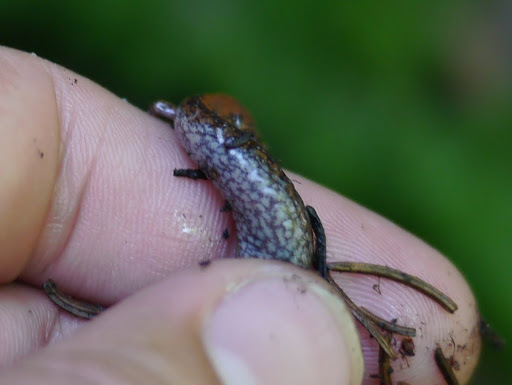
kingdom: Animalia
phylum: Chordata
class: Amphibia
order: Caudata
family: Plethodontidae
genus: Plethodon
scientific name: Plethodon cinereus
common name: Redback salamander
